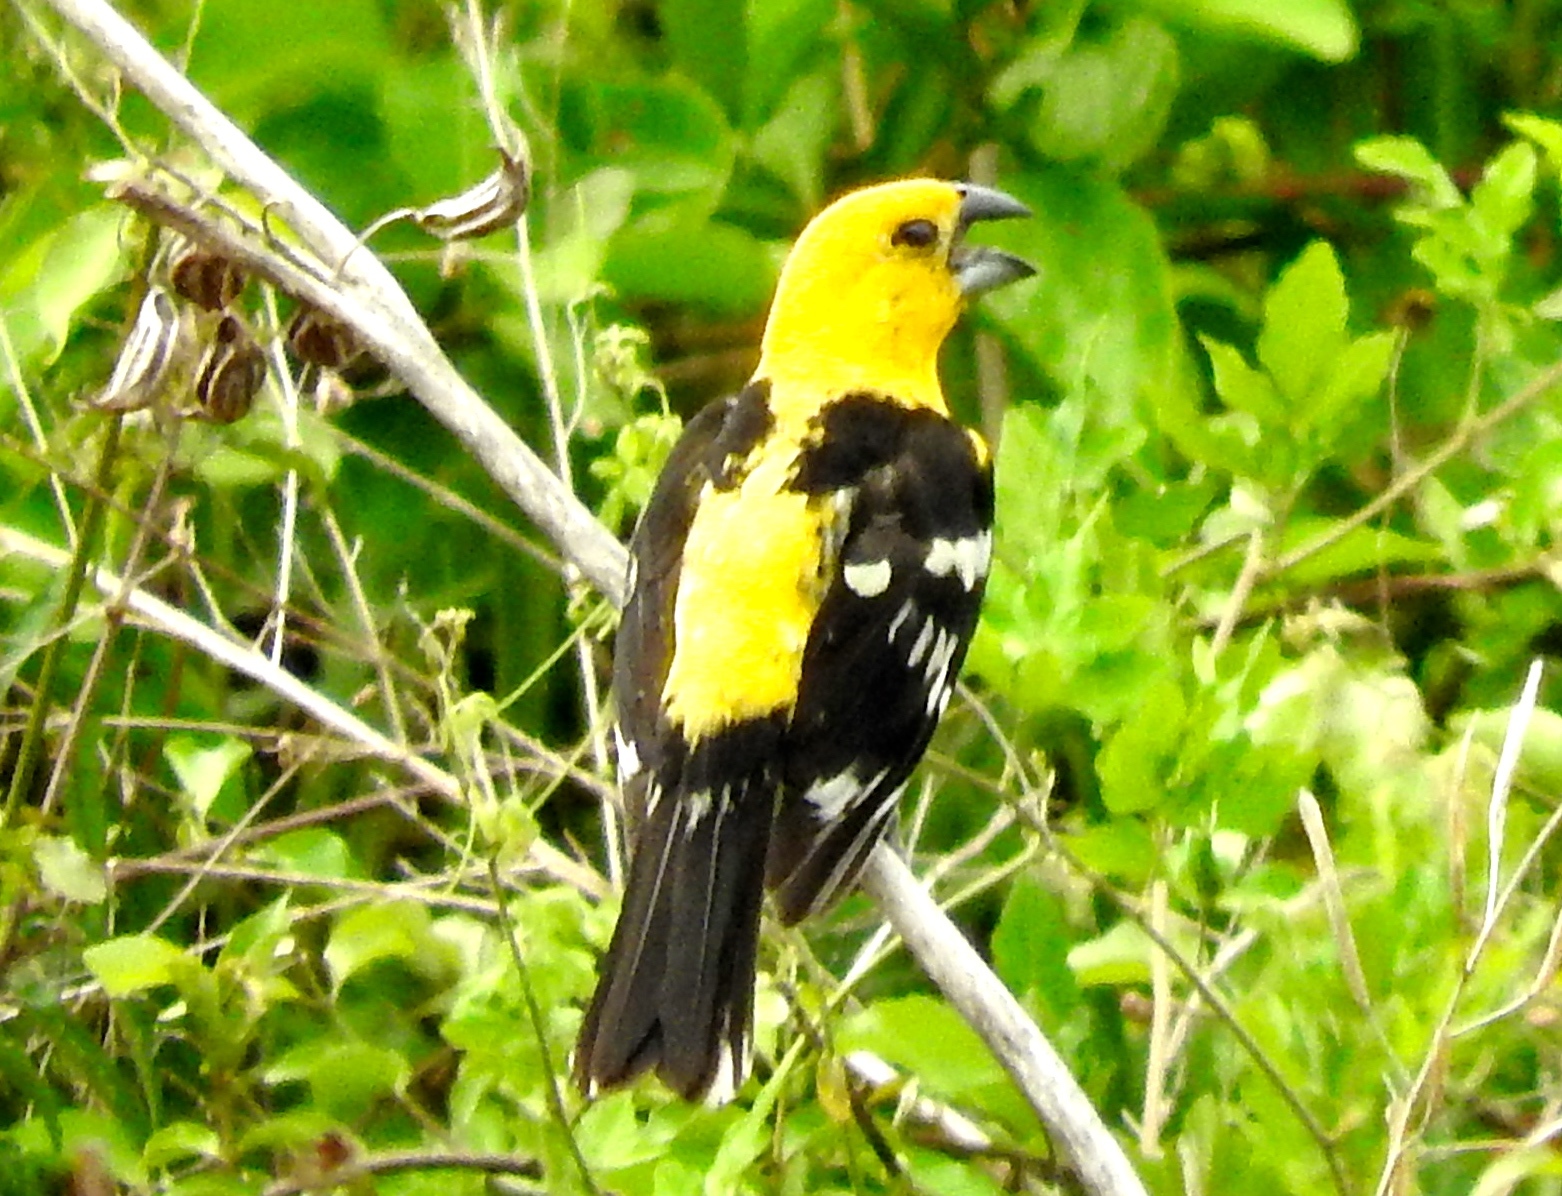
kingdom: Animalia
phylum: Chordata
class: Aves
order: Passeriformes
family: Cardinalidae
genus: Pheucticus
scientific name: Pheucticus chrysopeplus
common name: Yellow grosbeak
